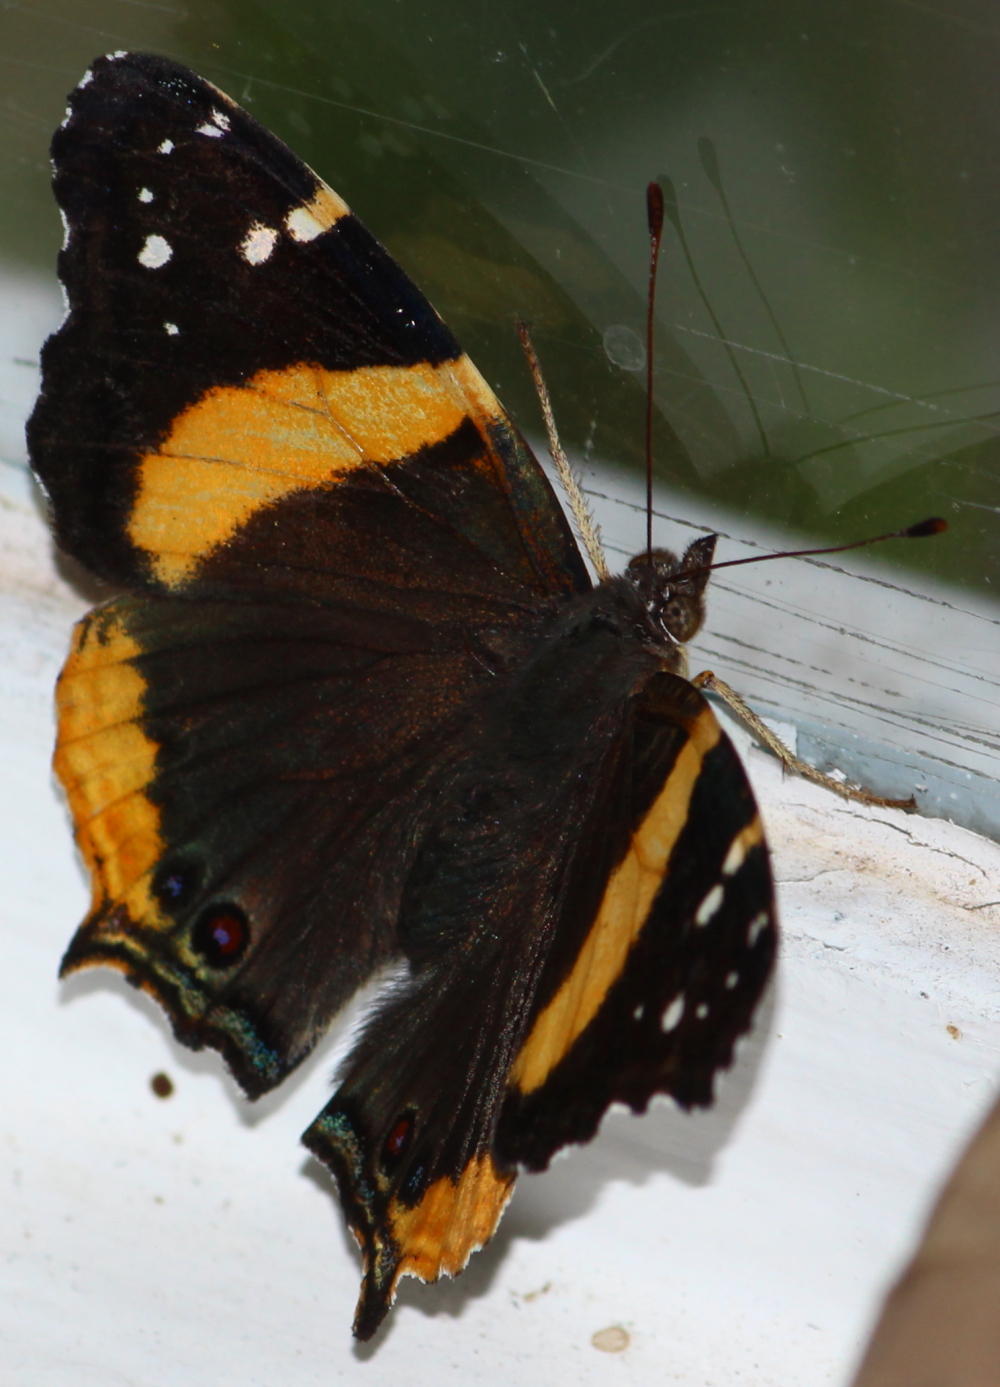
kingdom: Animalia
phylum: Arthropoda
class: Insecta
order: Lepidoptera
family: Nymphalidae
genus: Antanartia
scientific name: Antanartia hippomene
